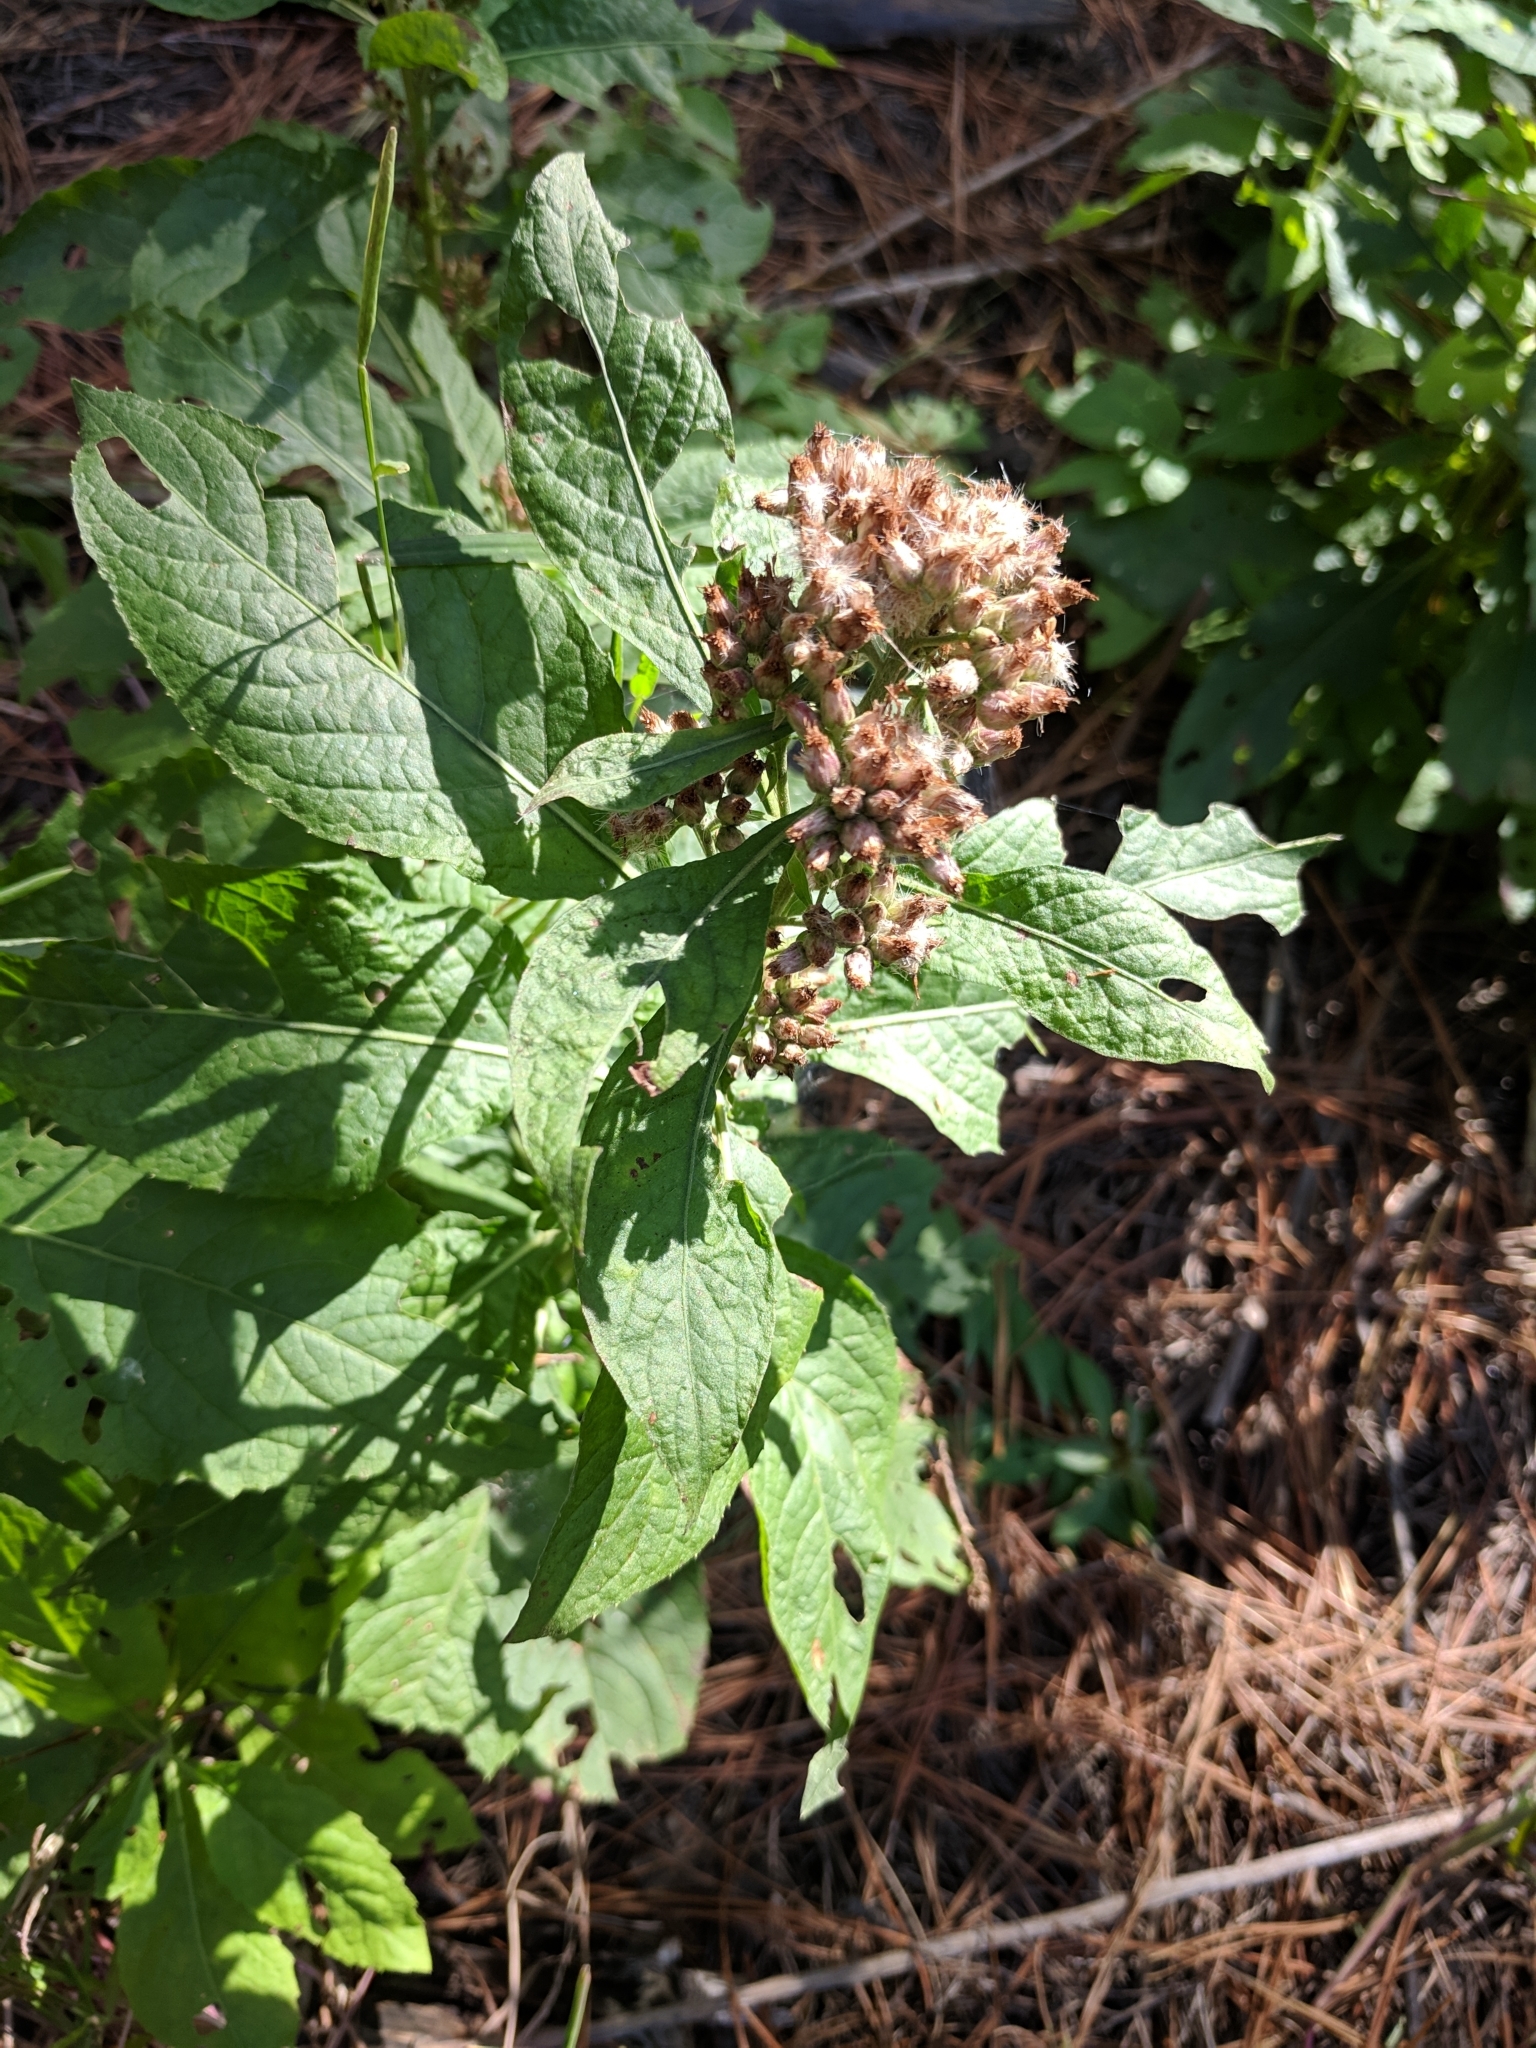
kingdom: Plantae
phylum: Tracheophyta
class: Magnoliopsida
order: Asterales
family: Asteraceae
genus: Pluchea
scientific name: Pluchea camphorata
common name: Camphor pluchea
